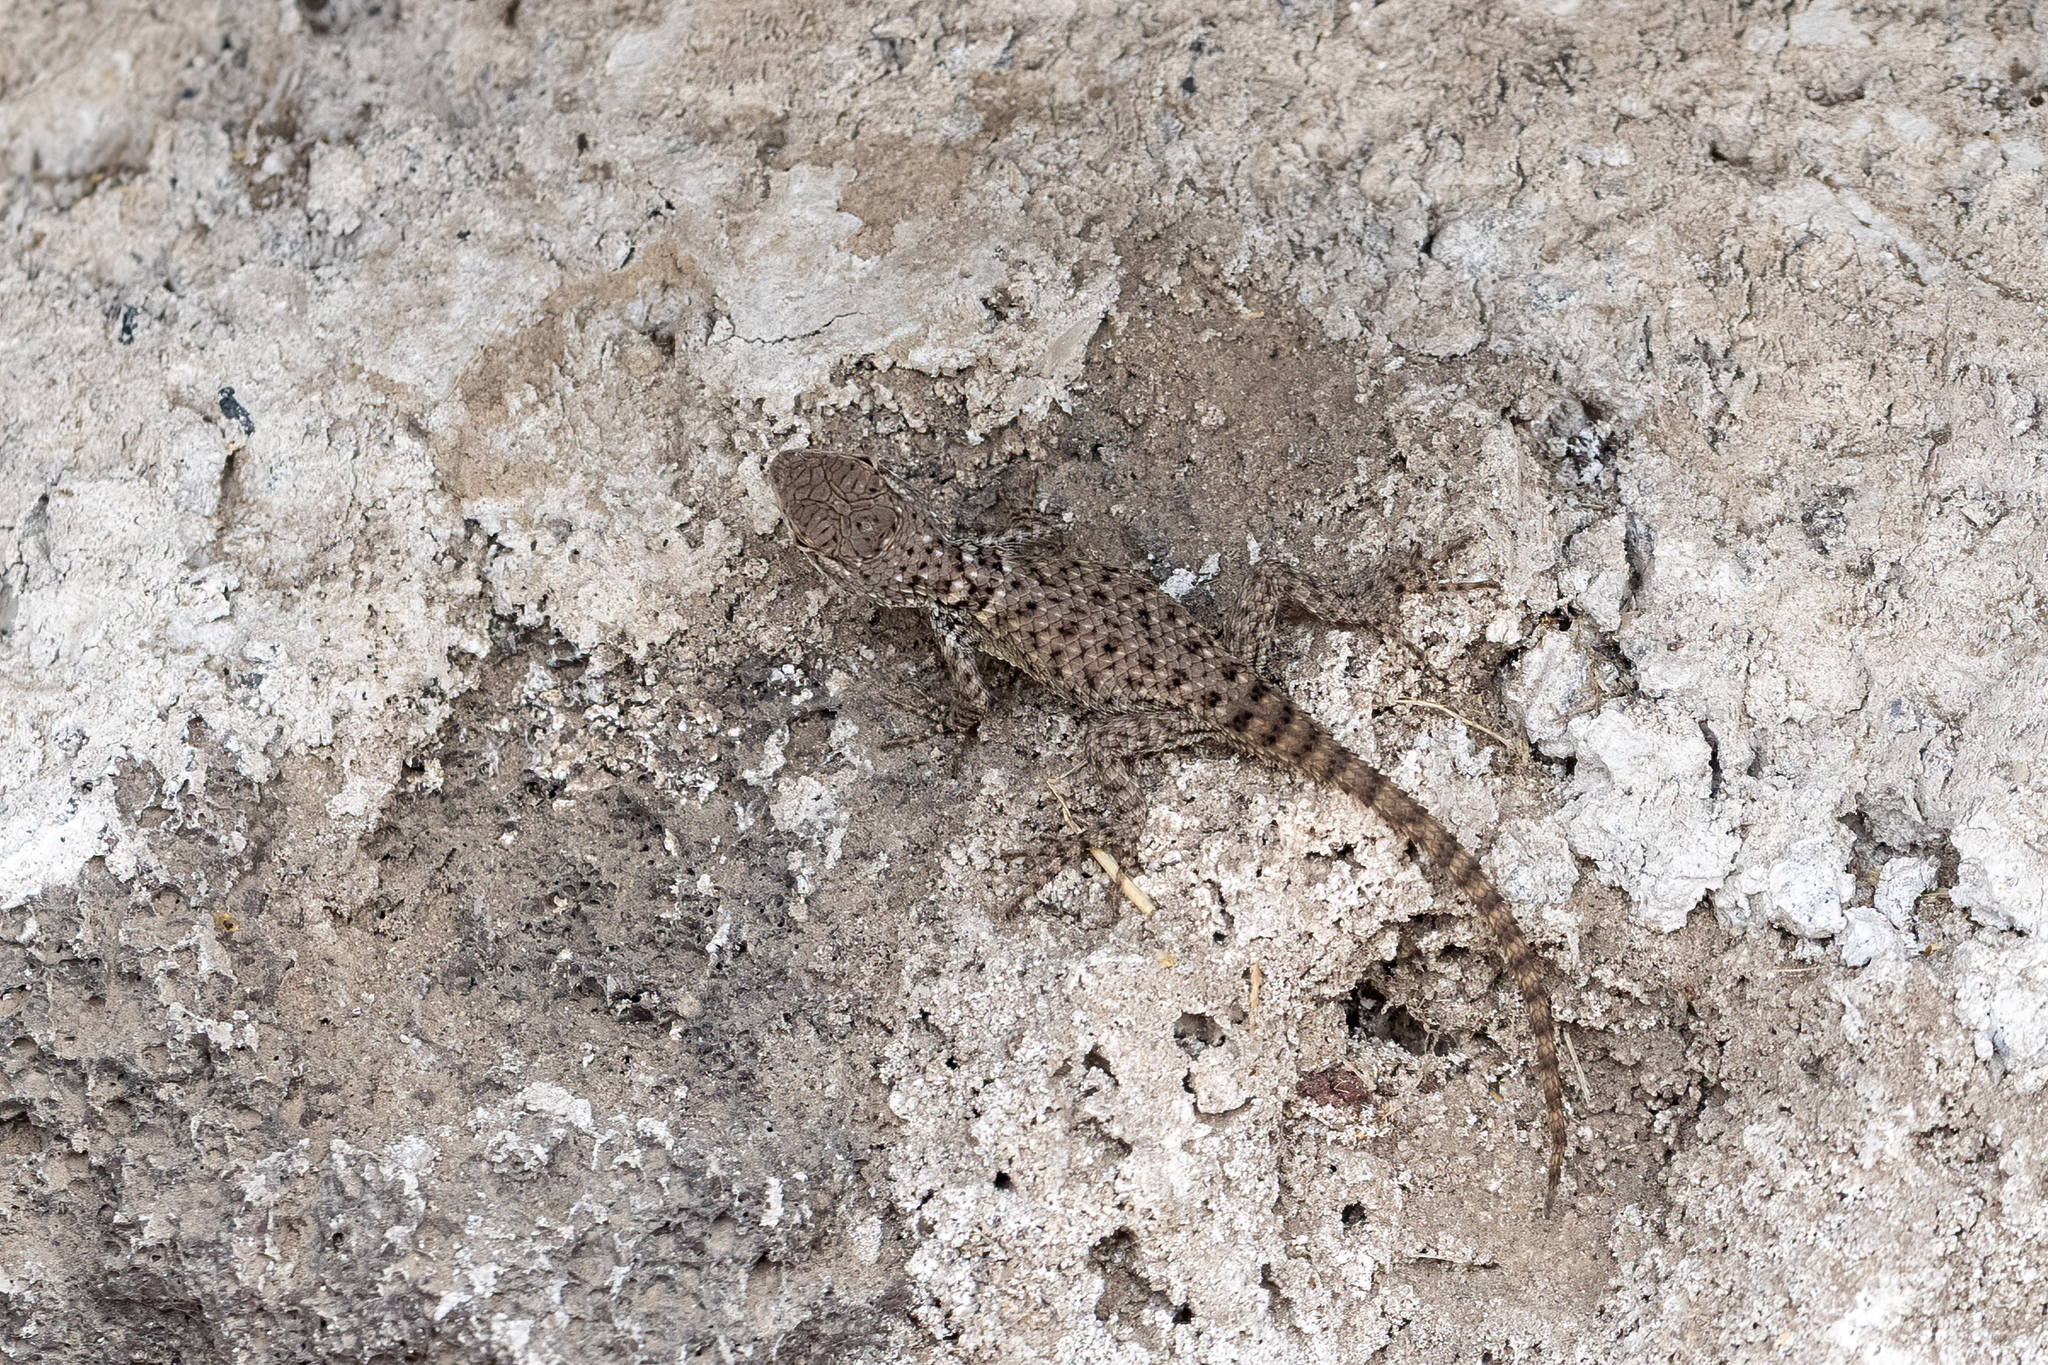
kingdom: Animalia
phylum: Chordata
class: Squamata
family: Phrynosomatidae
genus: Sceloporus
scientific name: Sceloporus torquatus
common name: Central plateau torquate lizard [melanogaster]
